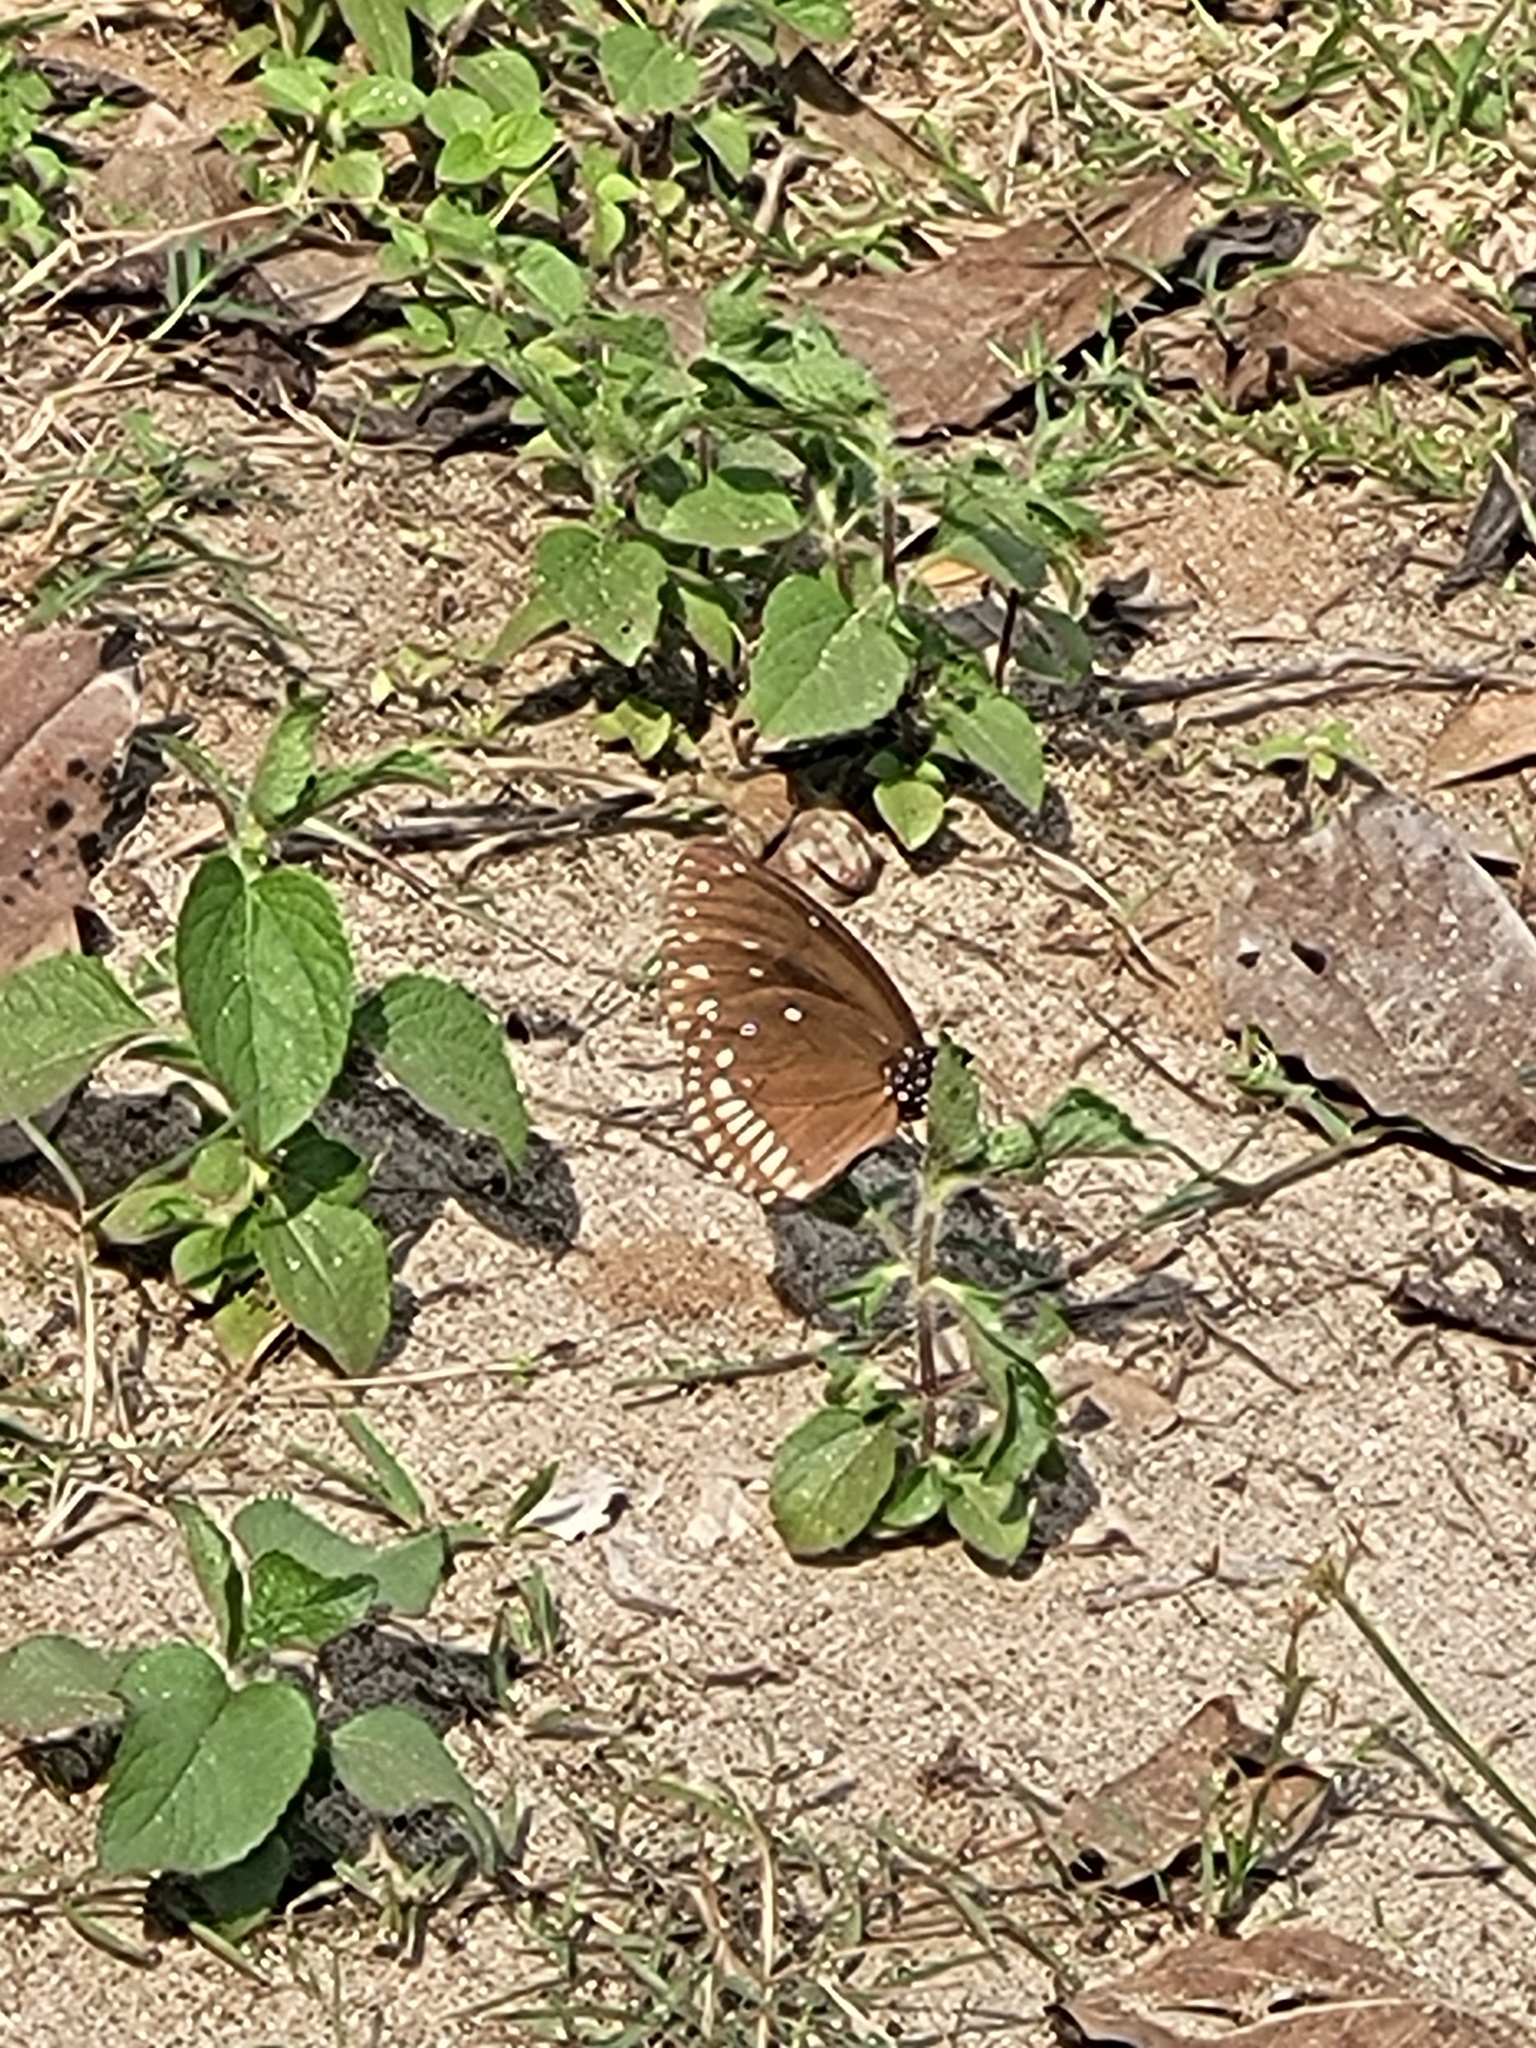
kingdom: Animalia
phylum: Arthropoda
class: Insecta
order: Lepidoptera
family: Nymphalidae
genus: Euploea
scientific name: Euploea klugii
